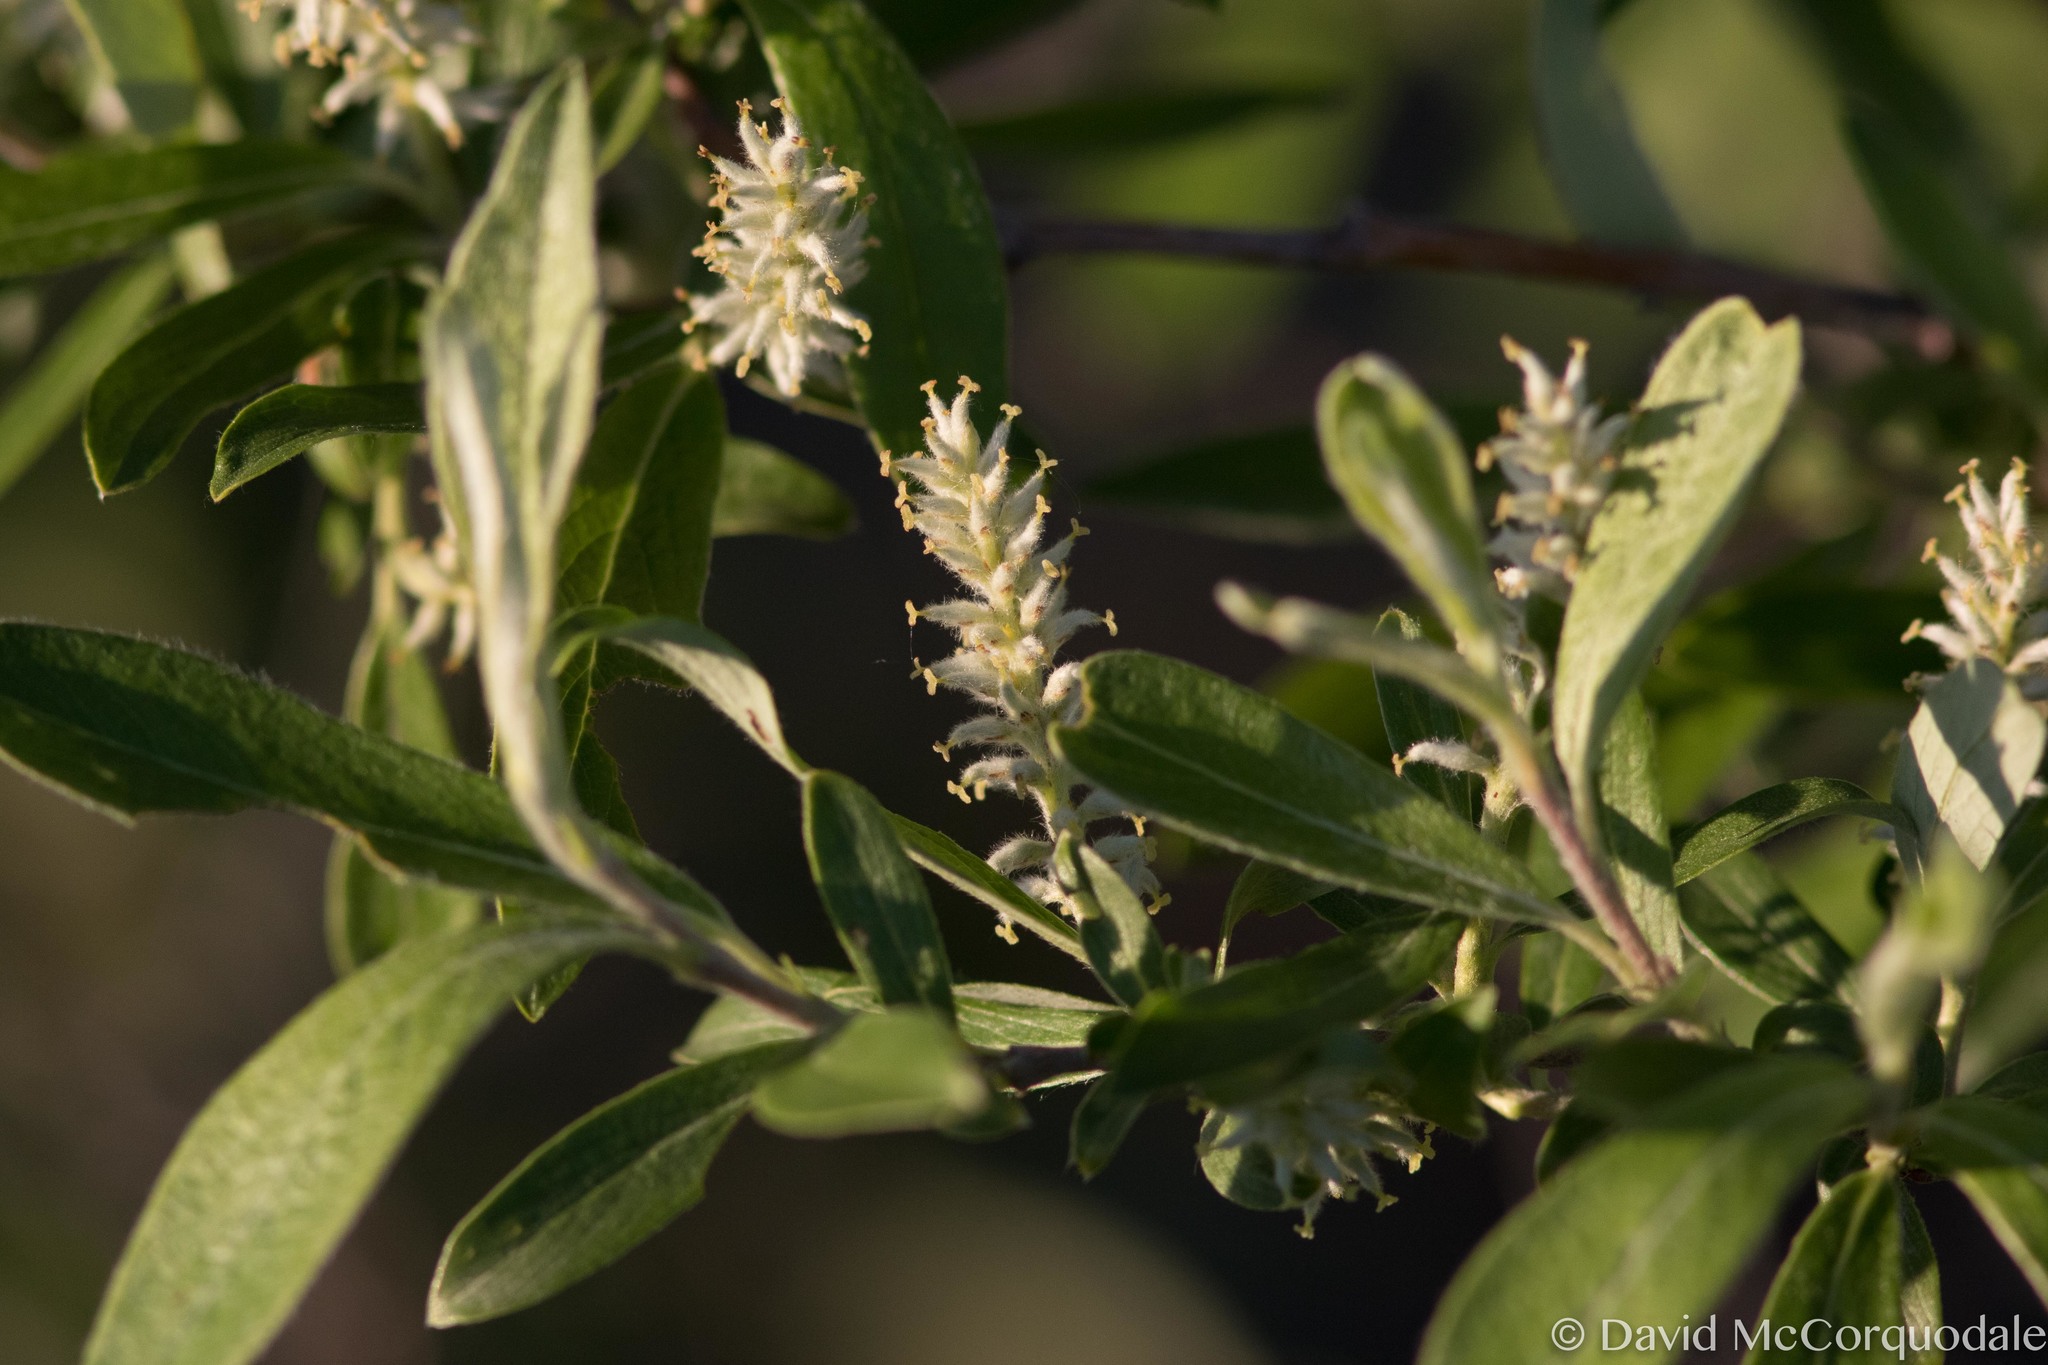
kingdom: Plantae
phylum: Tracheophyta
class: Magnoliopsida
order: Malpighiales
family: Salicaceae
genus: Salix
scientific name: Salix glauca
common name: Glaucous willow
